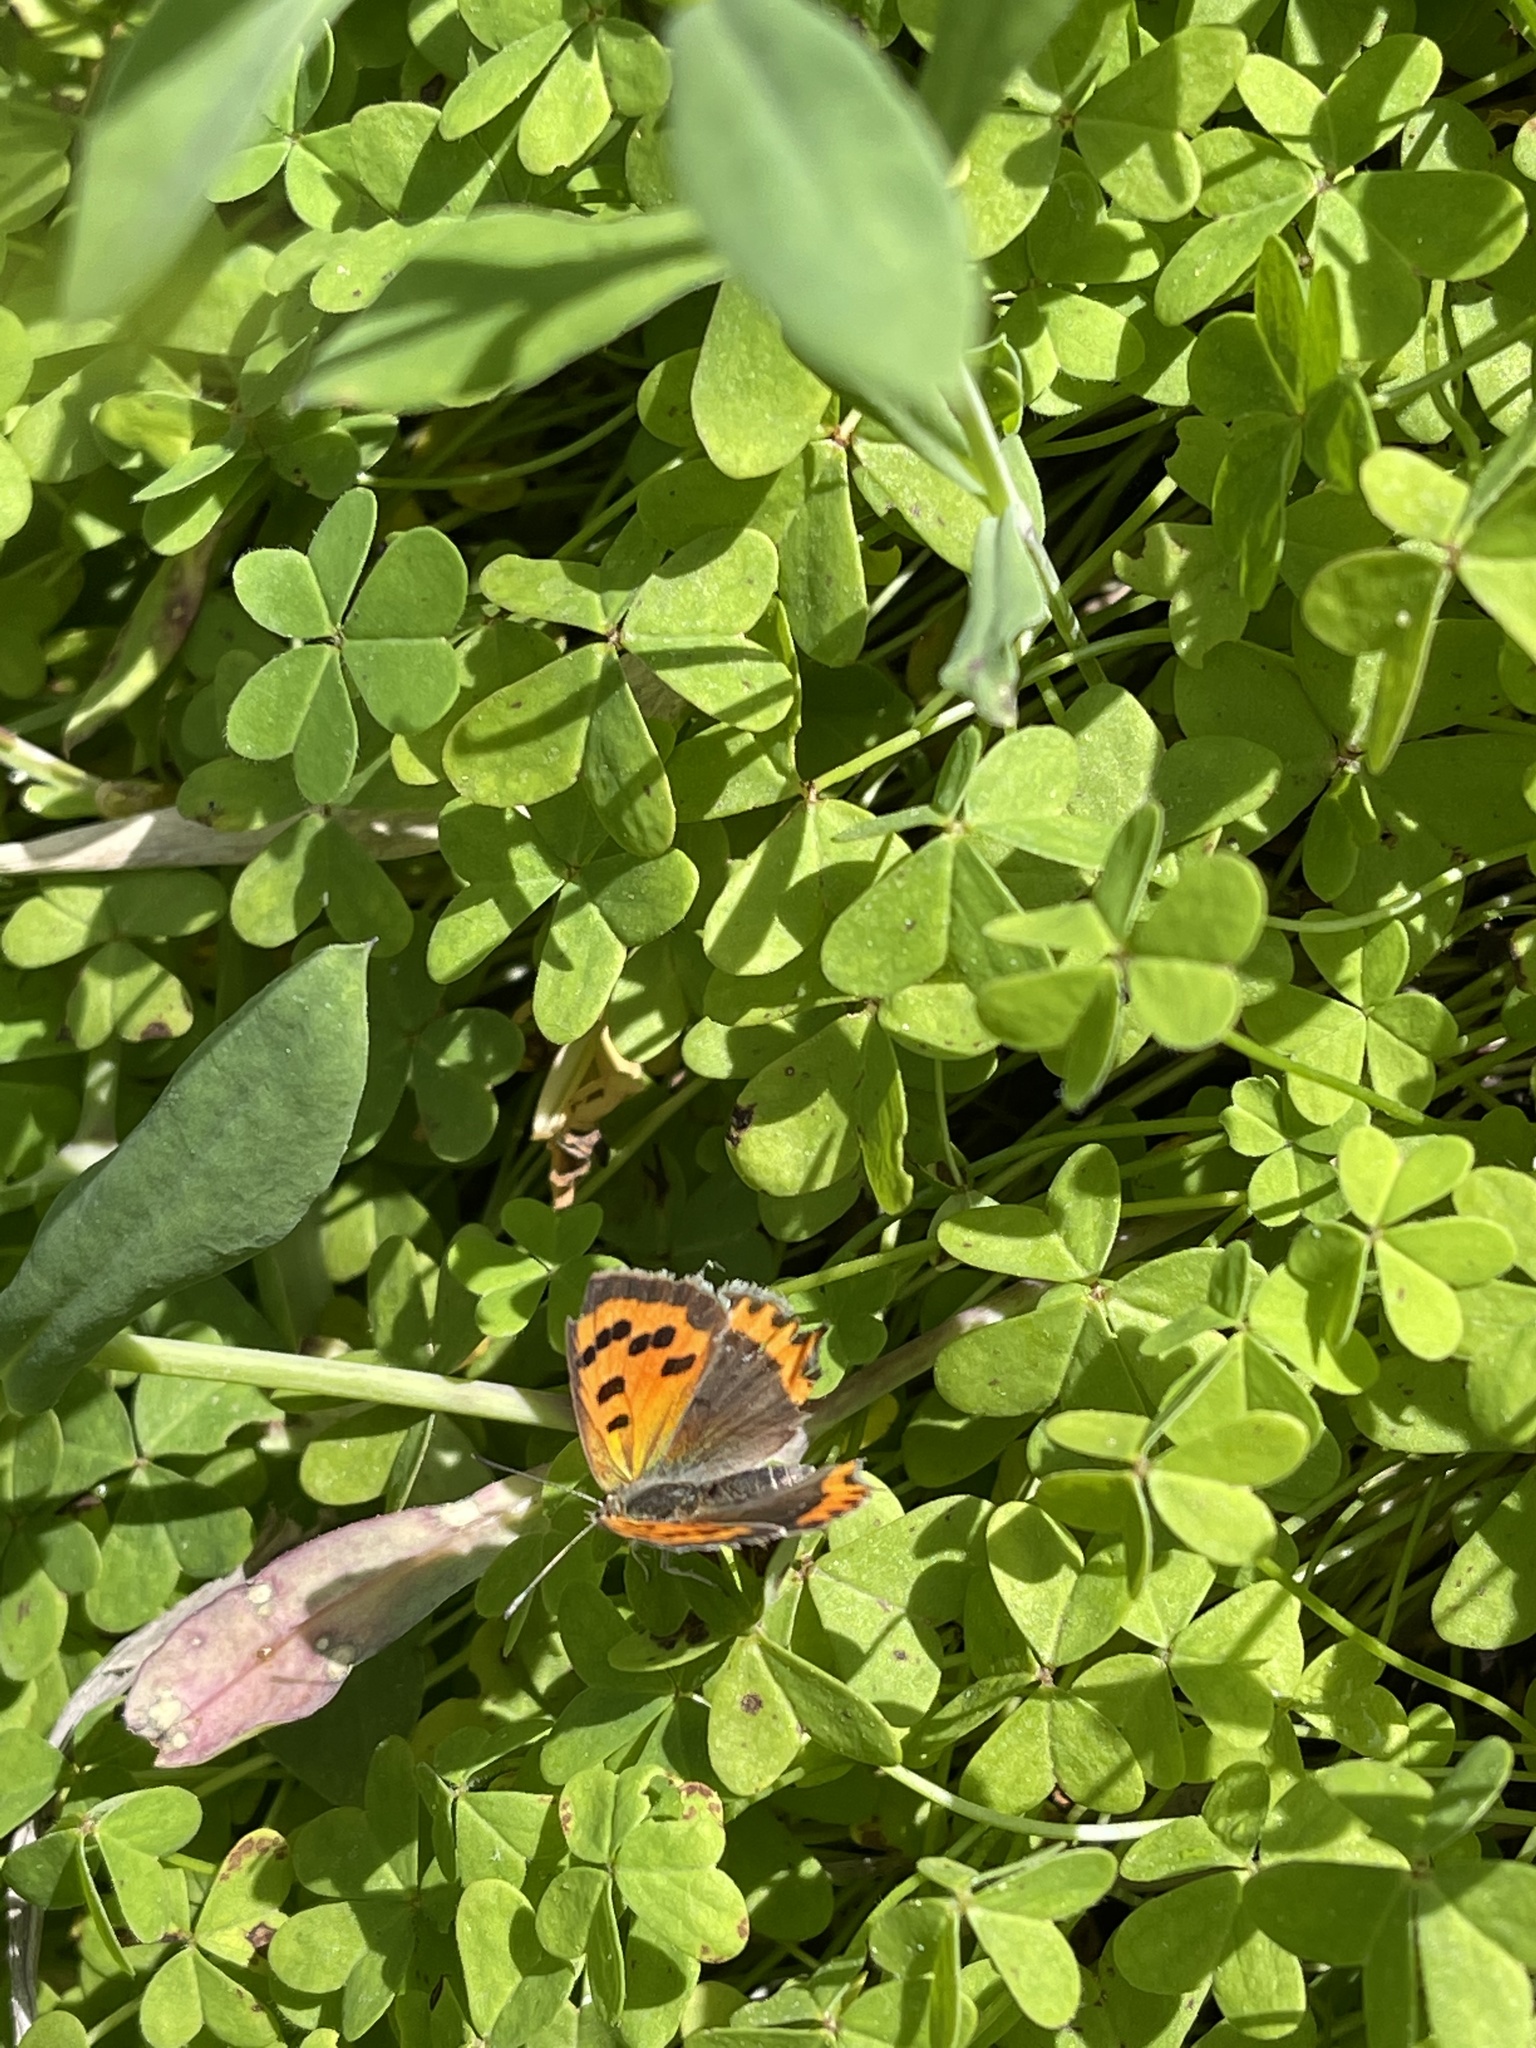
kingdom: Animalia
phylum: Arthropoda
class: Insecta
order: Lepidoptera
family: Lycaenidae
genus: Lycaena
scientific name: Lycaena phlaeas
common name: Small copper
